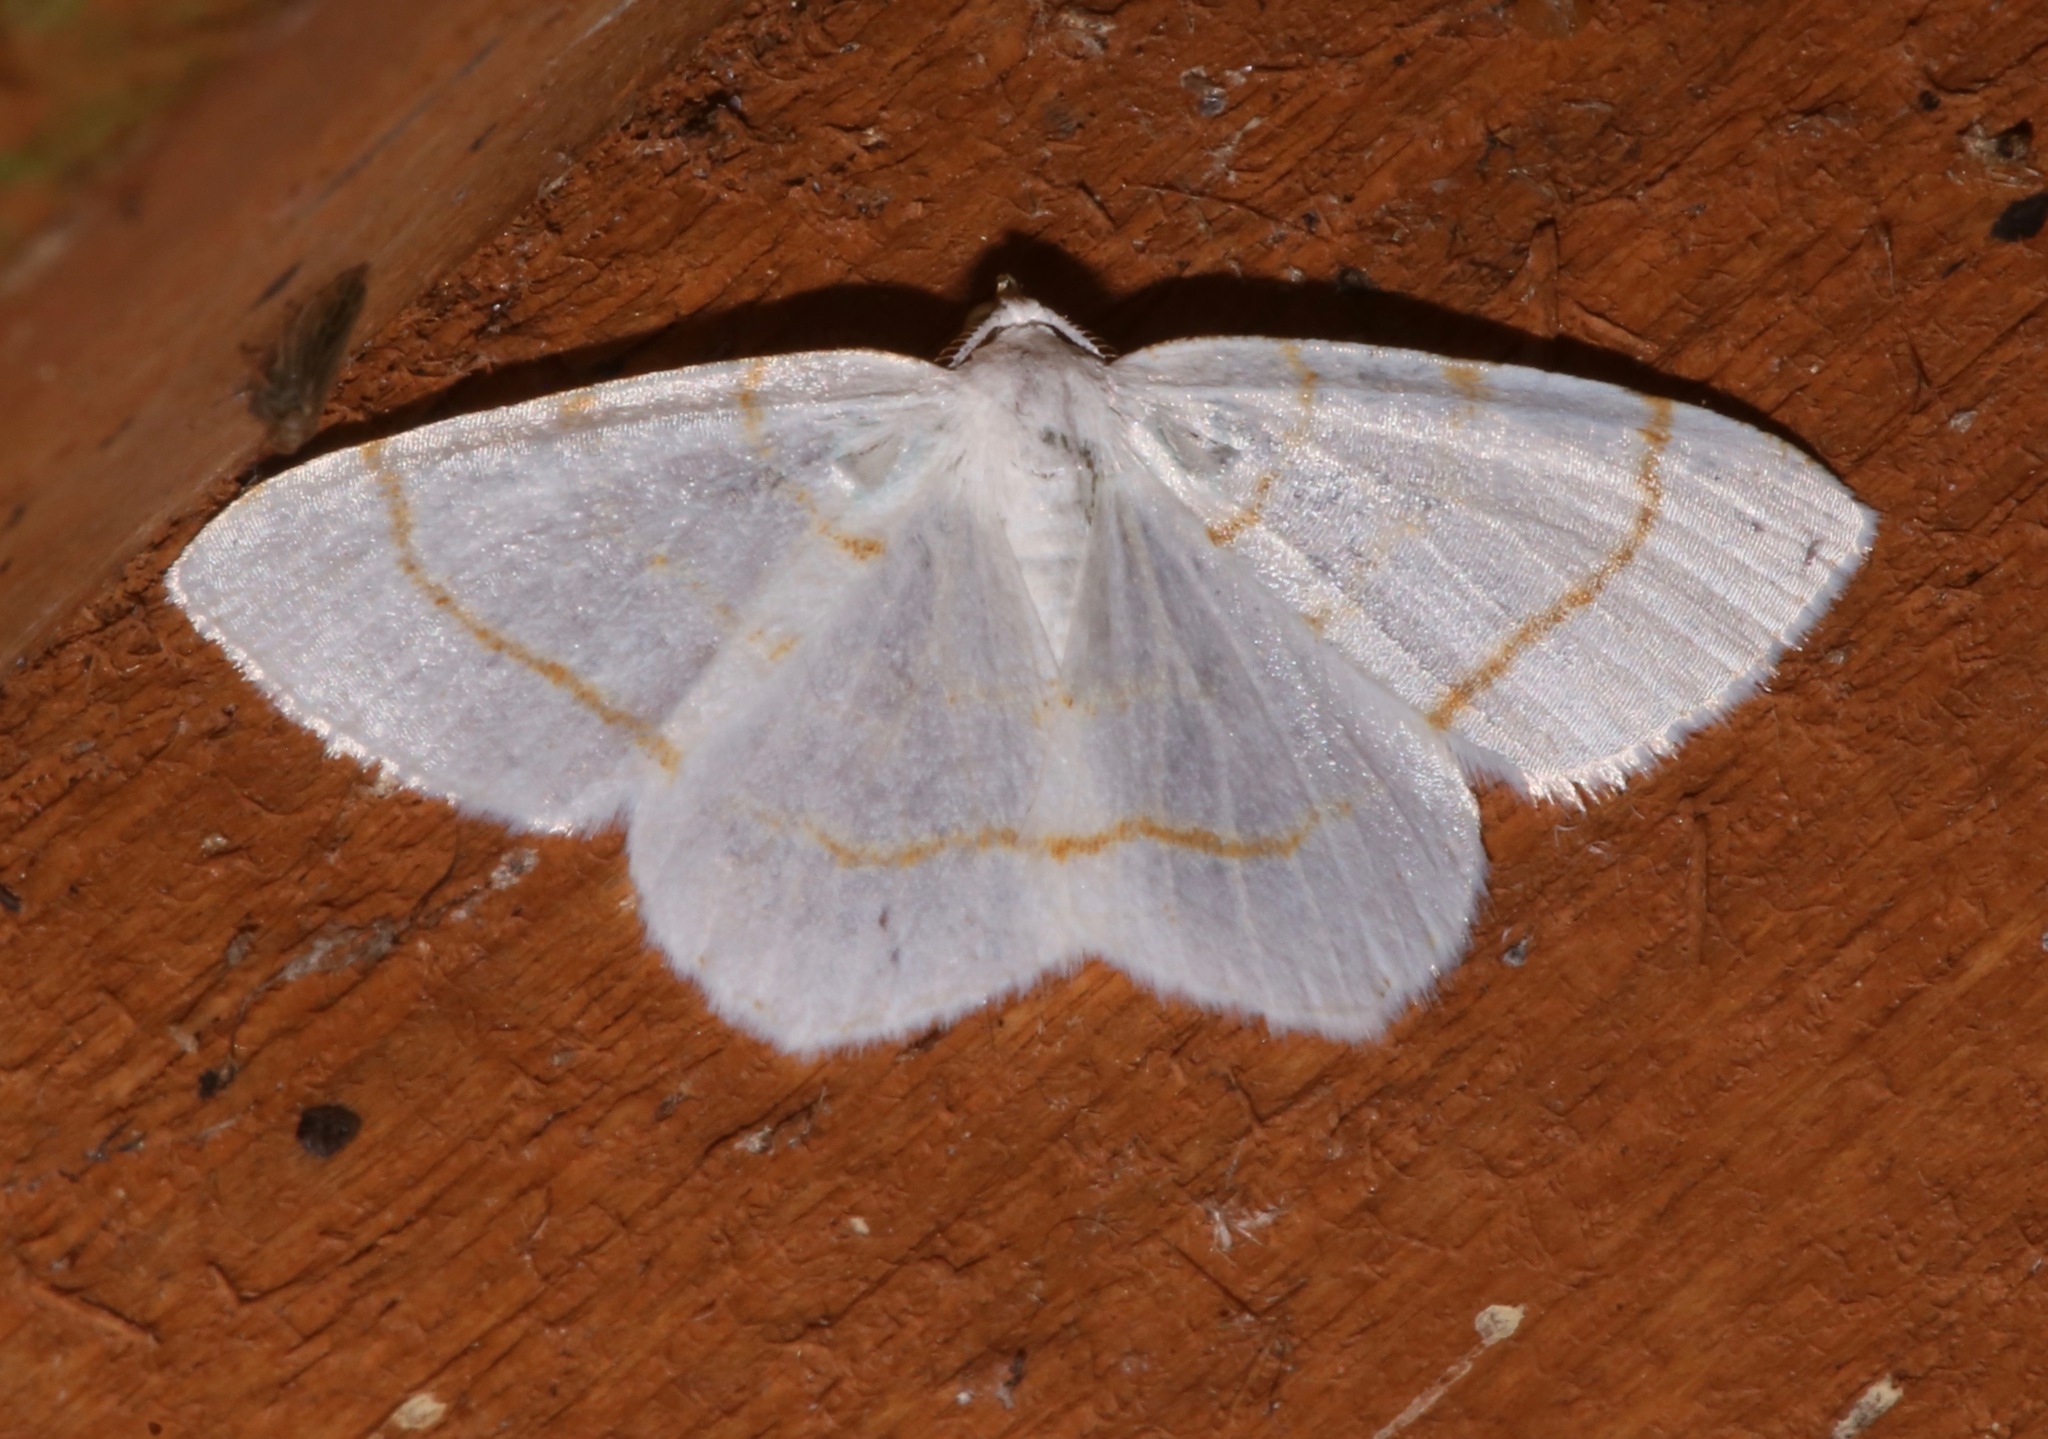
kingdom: Animalia
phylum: Arthropoda
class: Insecta
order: Lepidoptera
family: Geometridae
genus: Macaria
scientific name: Macaria pustularia
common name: Lesser maple spanworm moth
